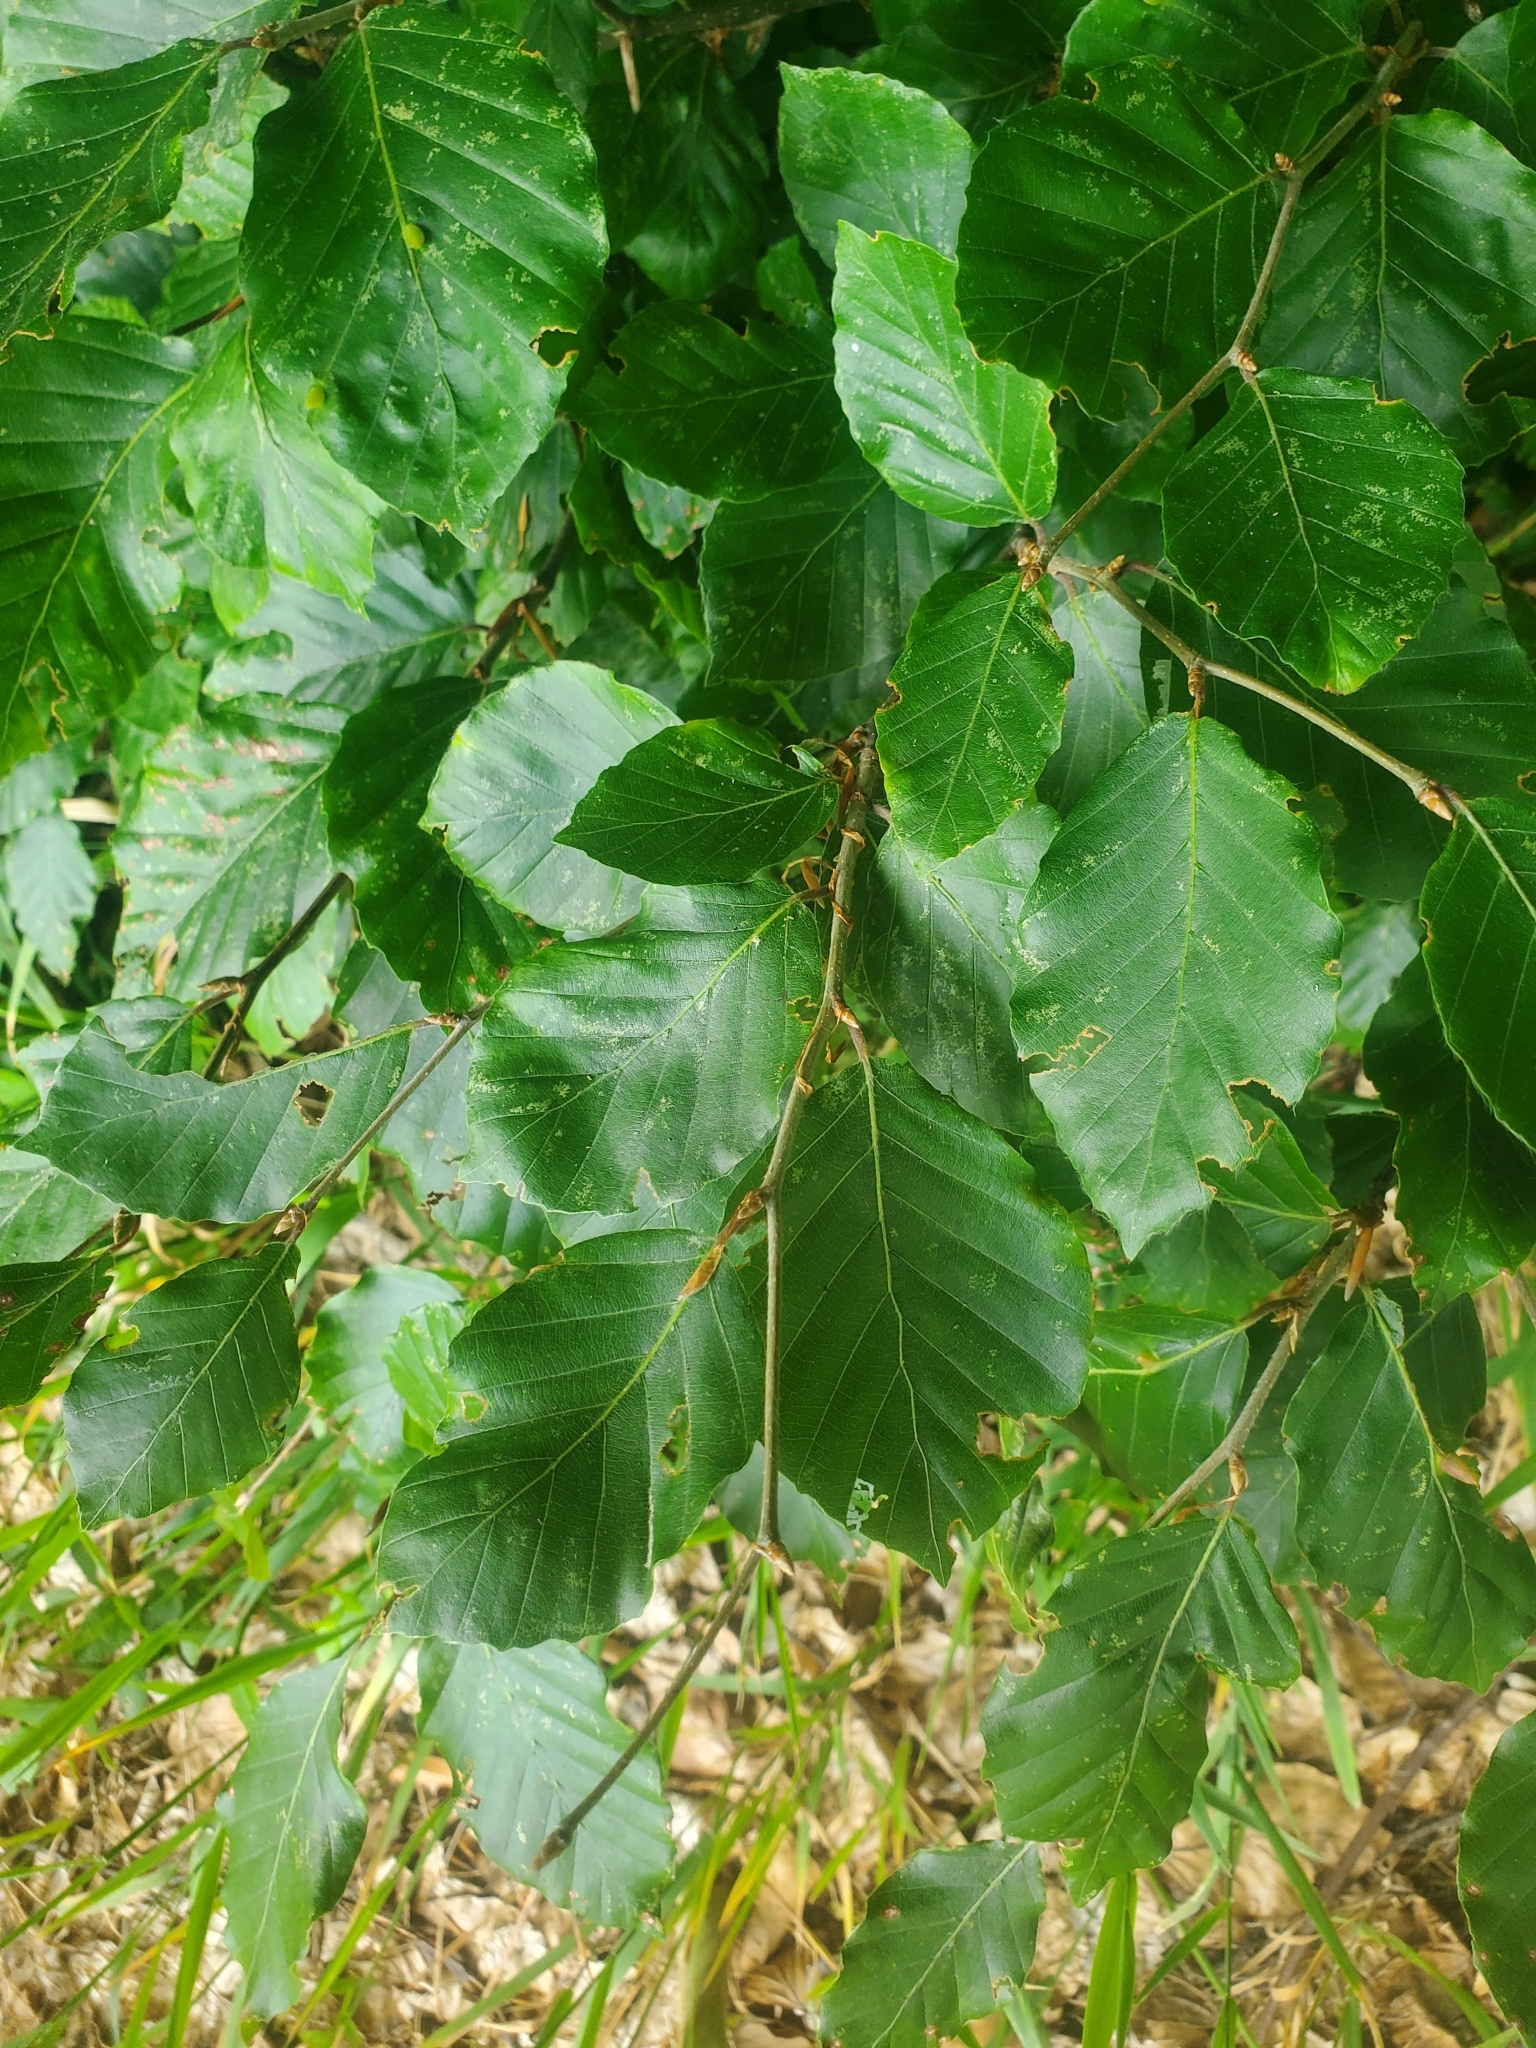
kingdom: Plantae
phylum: Tracheophyta
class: Magnoliopsida
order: Fagales
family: Fagaceae
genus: Fagus
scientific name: Fagus sylvatica
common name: Beech
